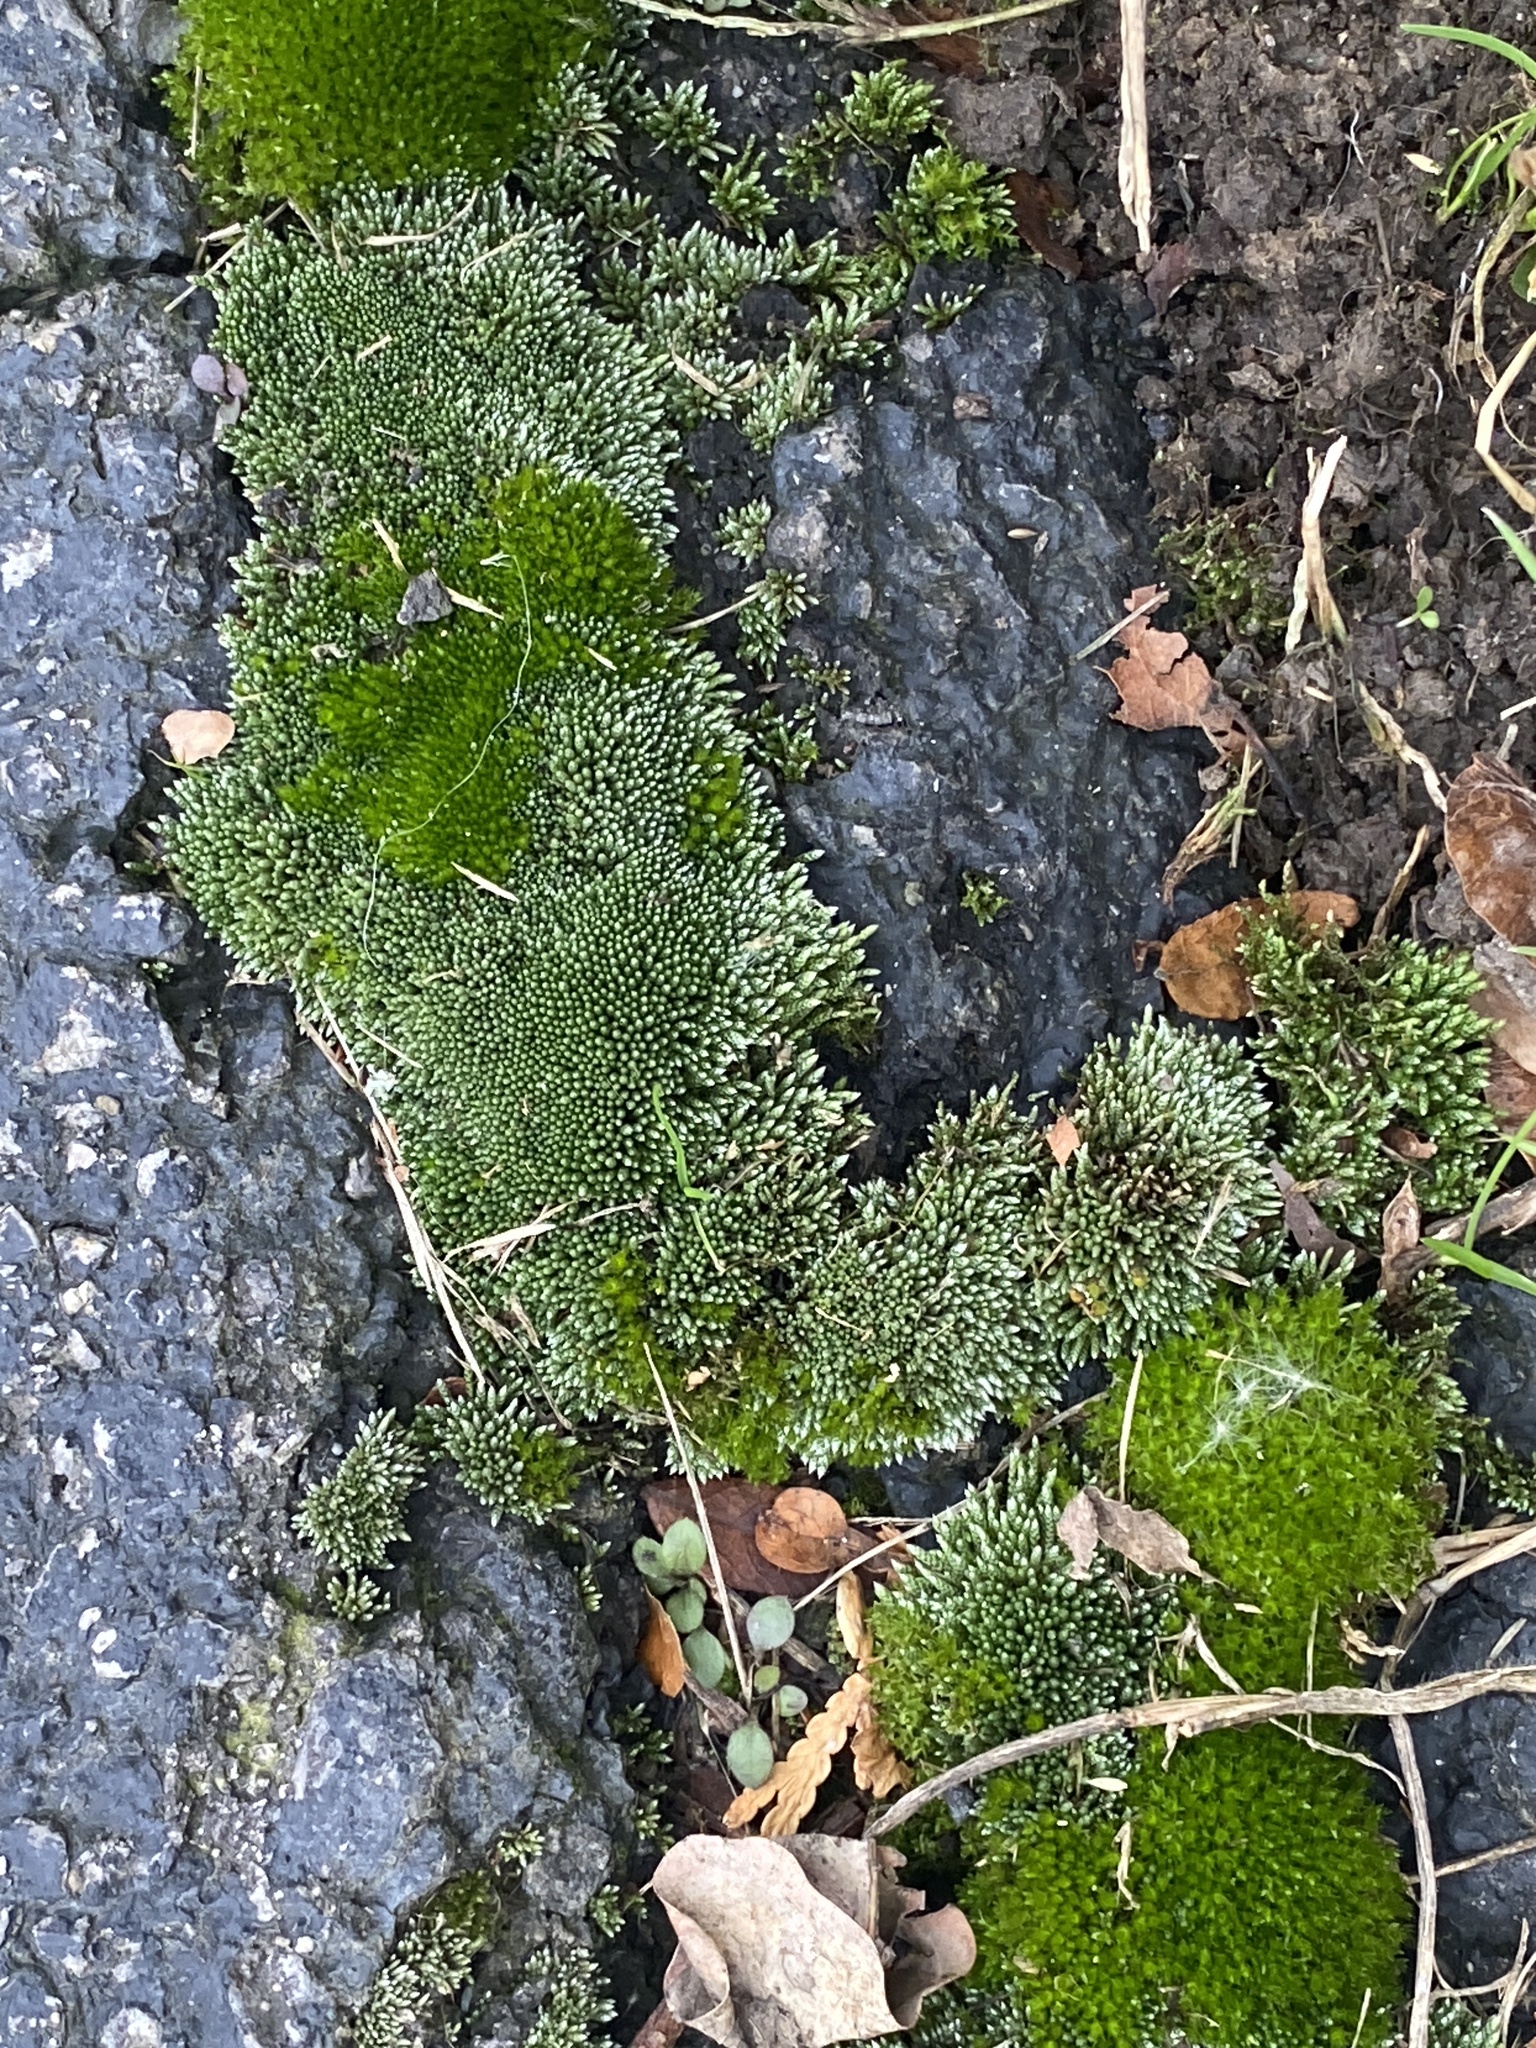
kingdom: Plantae
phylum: Bryophyta
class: Bryopsida
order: Bryales
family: Bryaceae
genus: Bryum
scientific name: Bryum argenteum
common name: Silver-moss
